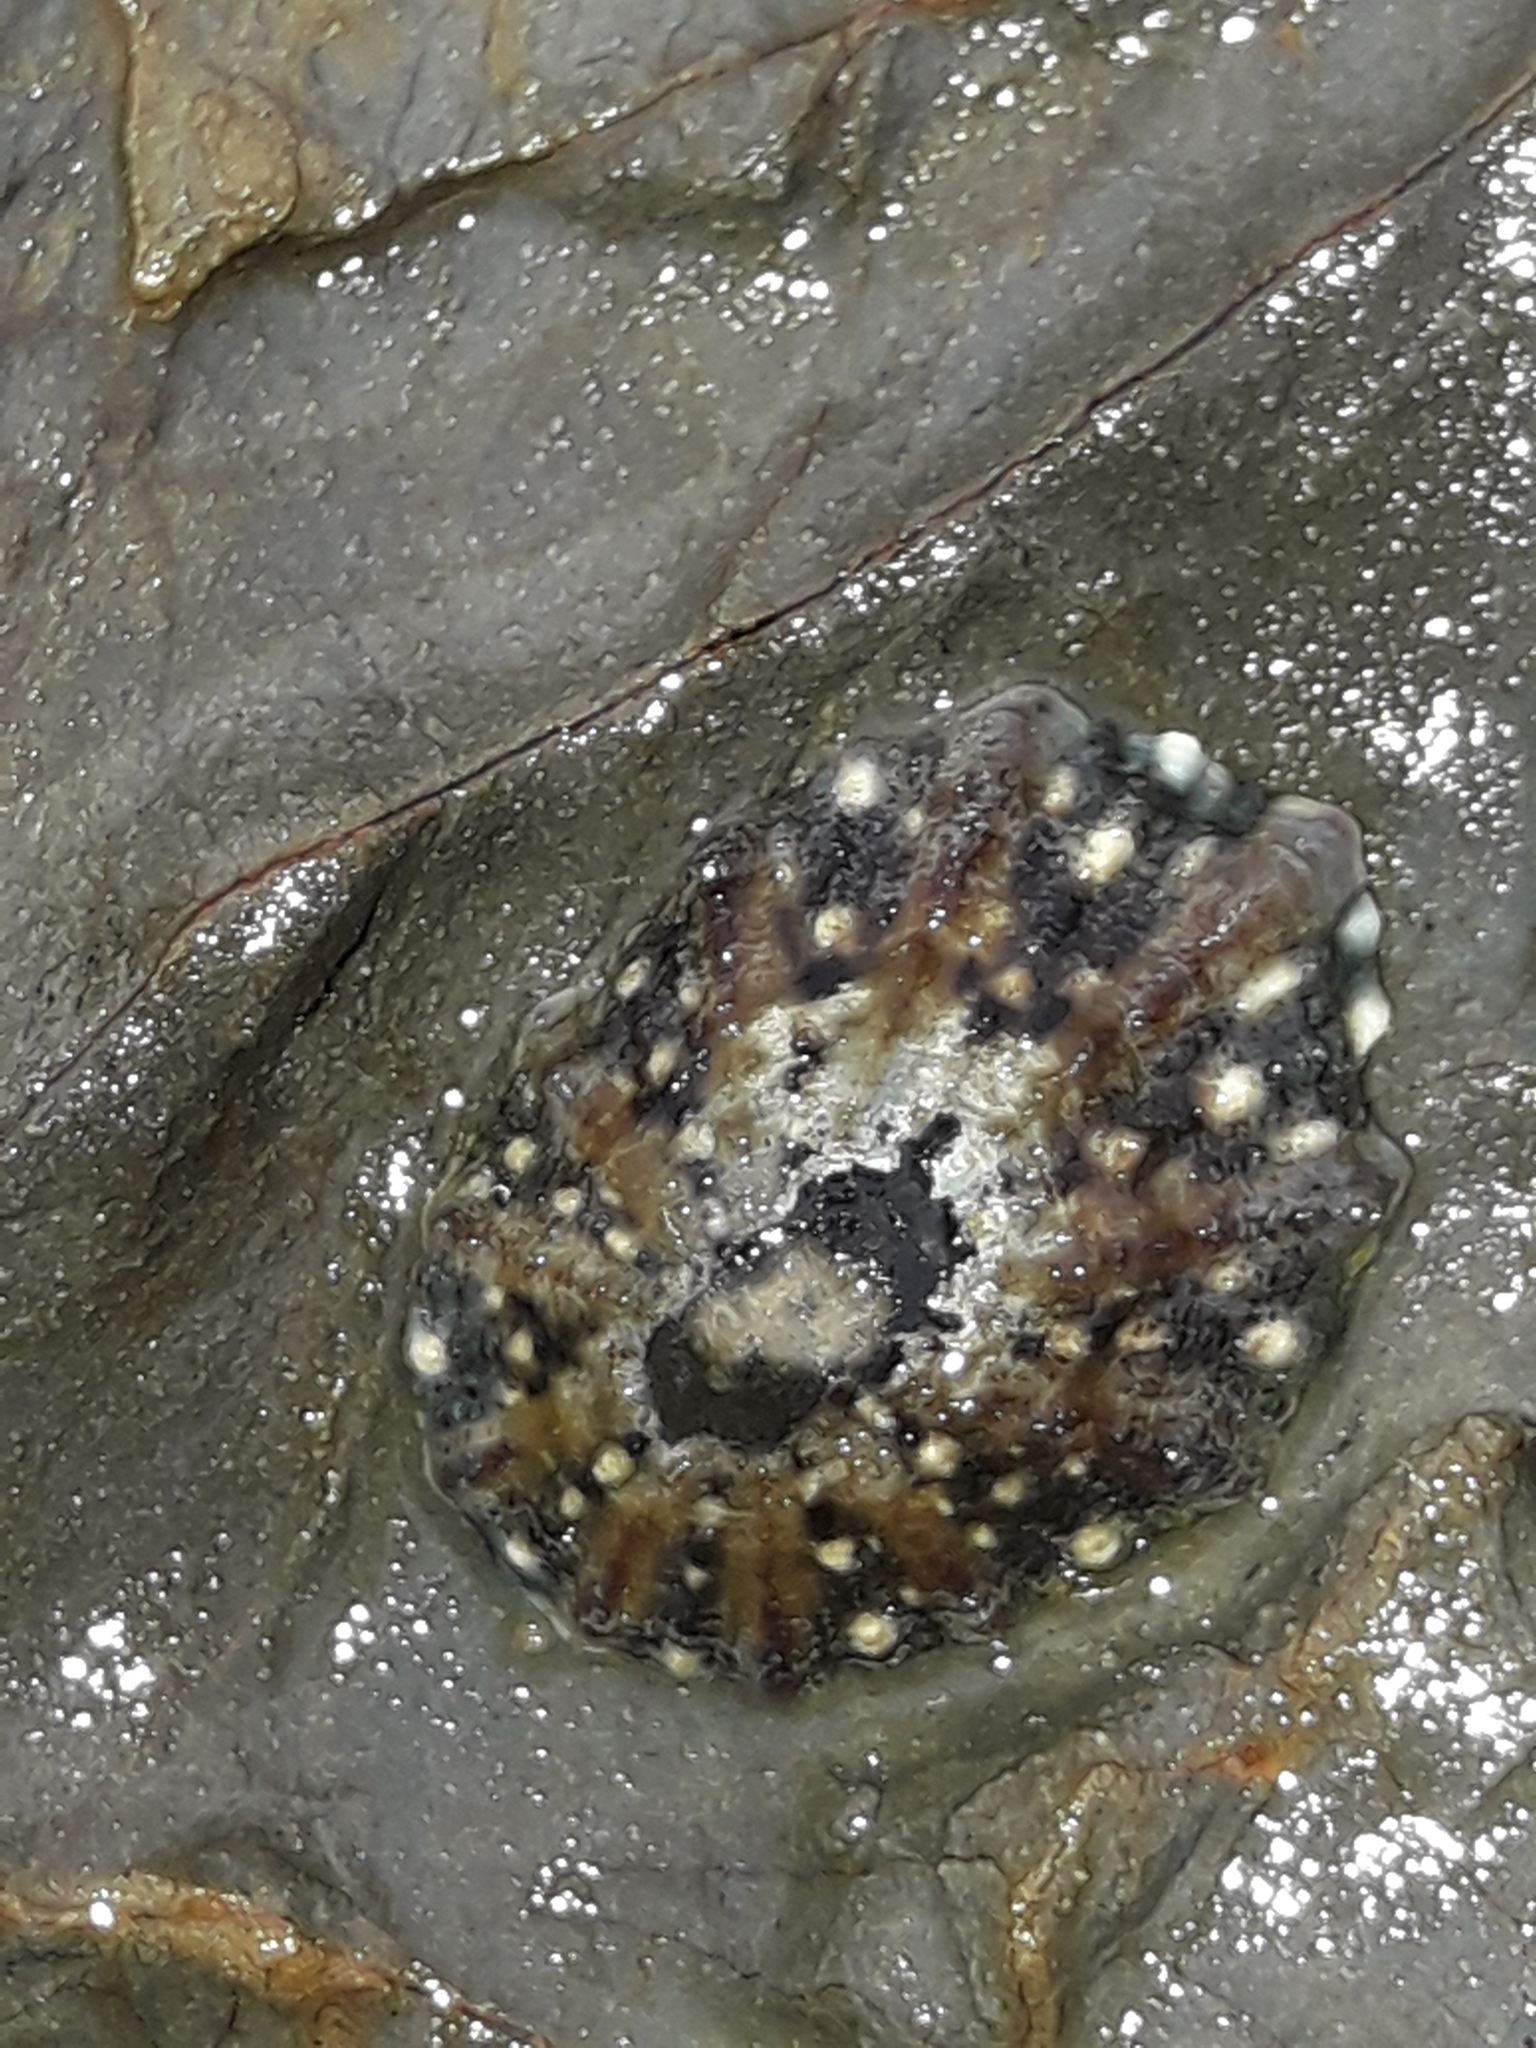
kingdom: Animalia
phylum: Mollusca
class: Gastropoda
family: Nacellidae
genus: Cellana
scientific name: Cellana ornata
